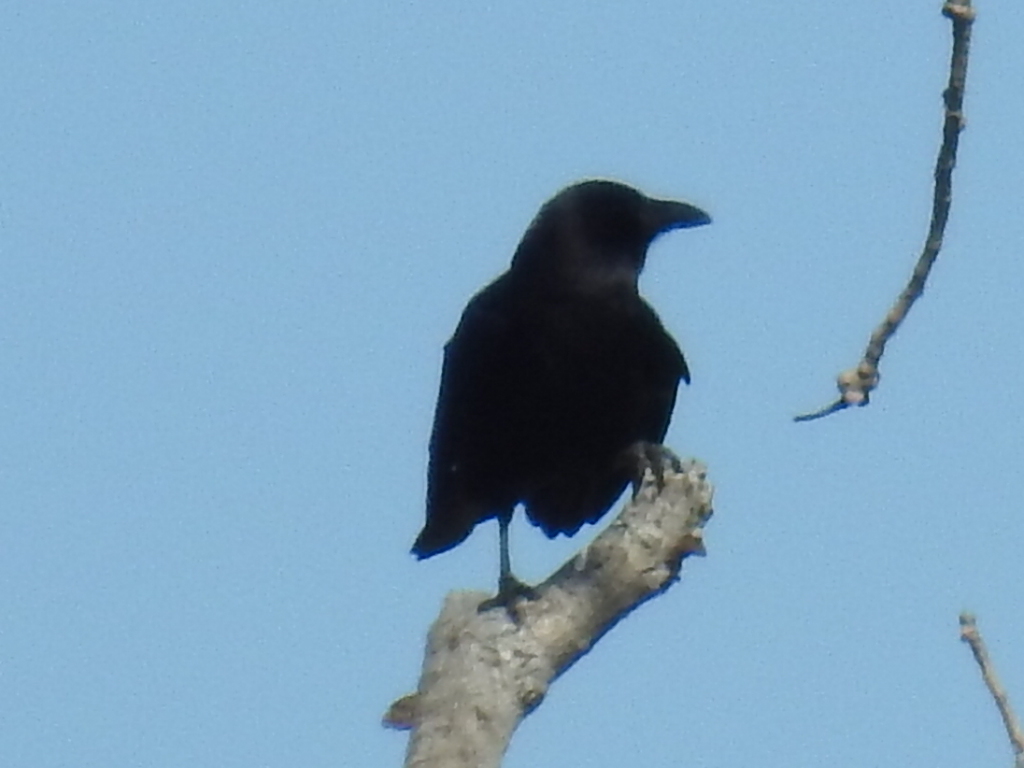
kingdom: Animalia
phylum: Chordata
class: Aves
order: Passeriformes
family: Corvidae
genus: Corvus
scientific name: Corvus brachyrhynchos
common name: American crow
